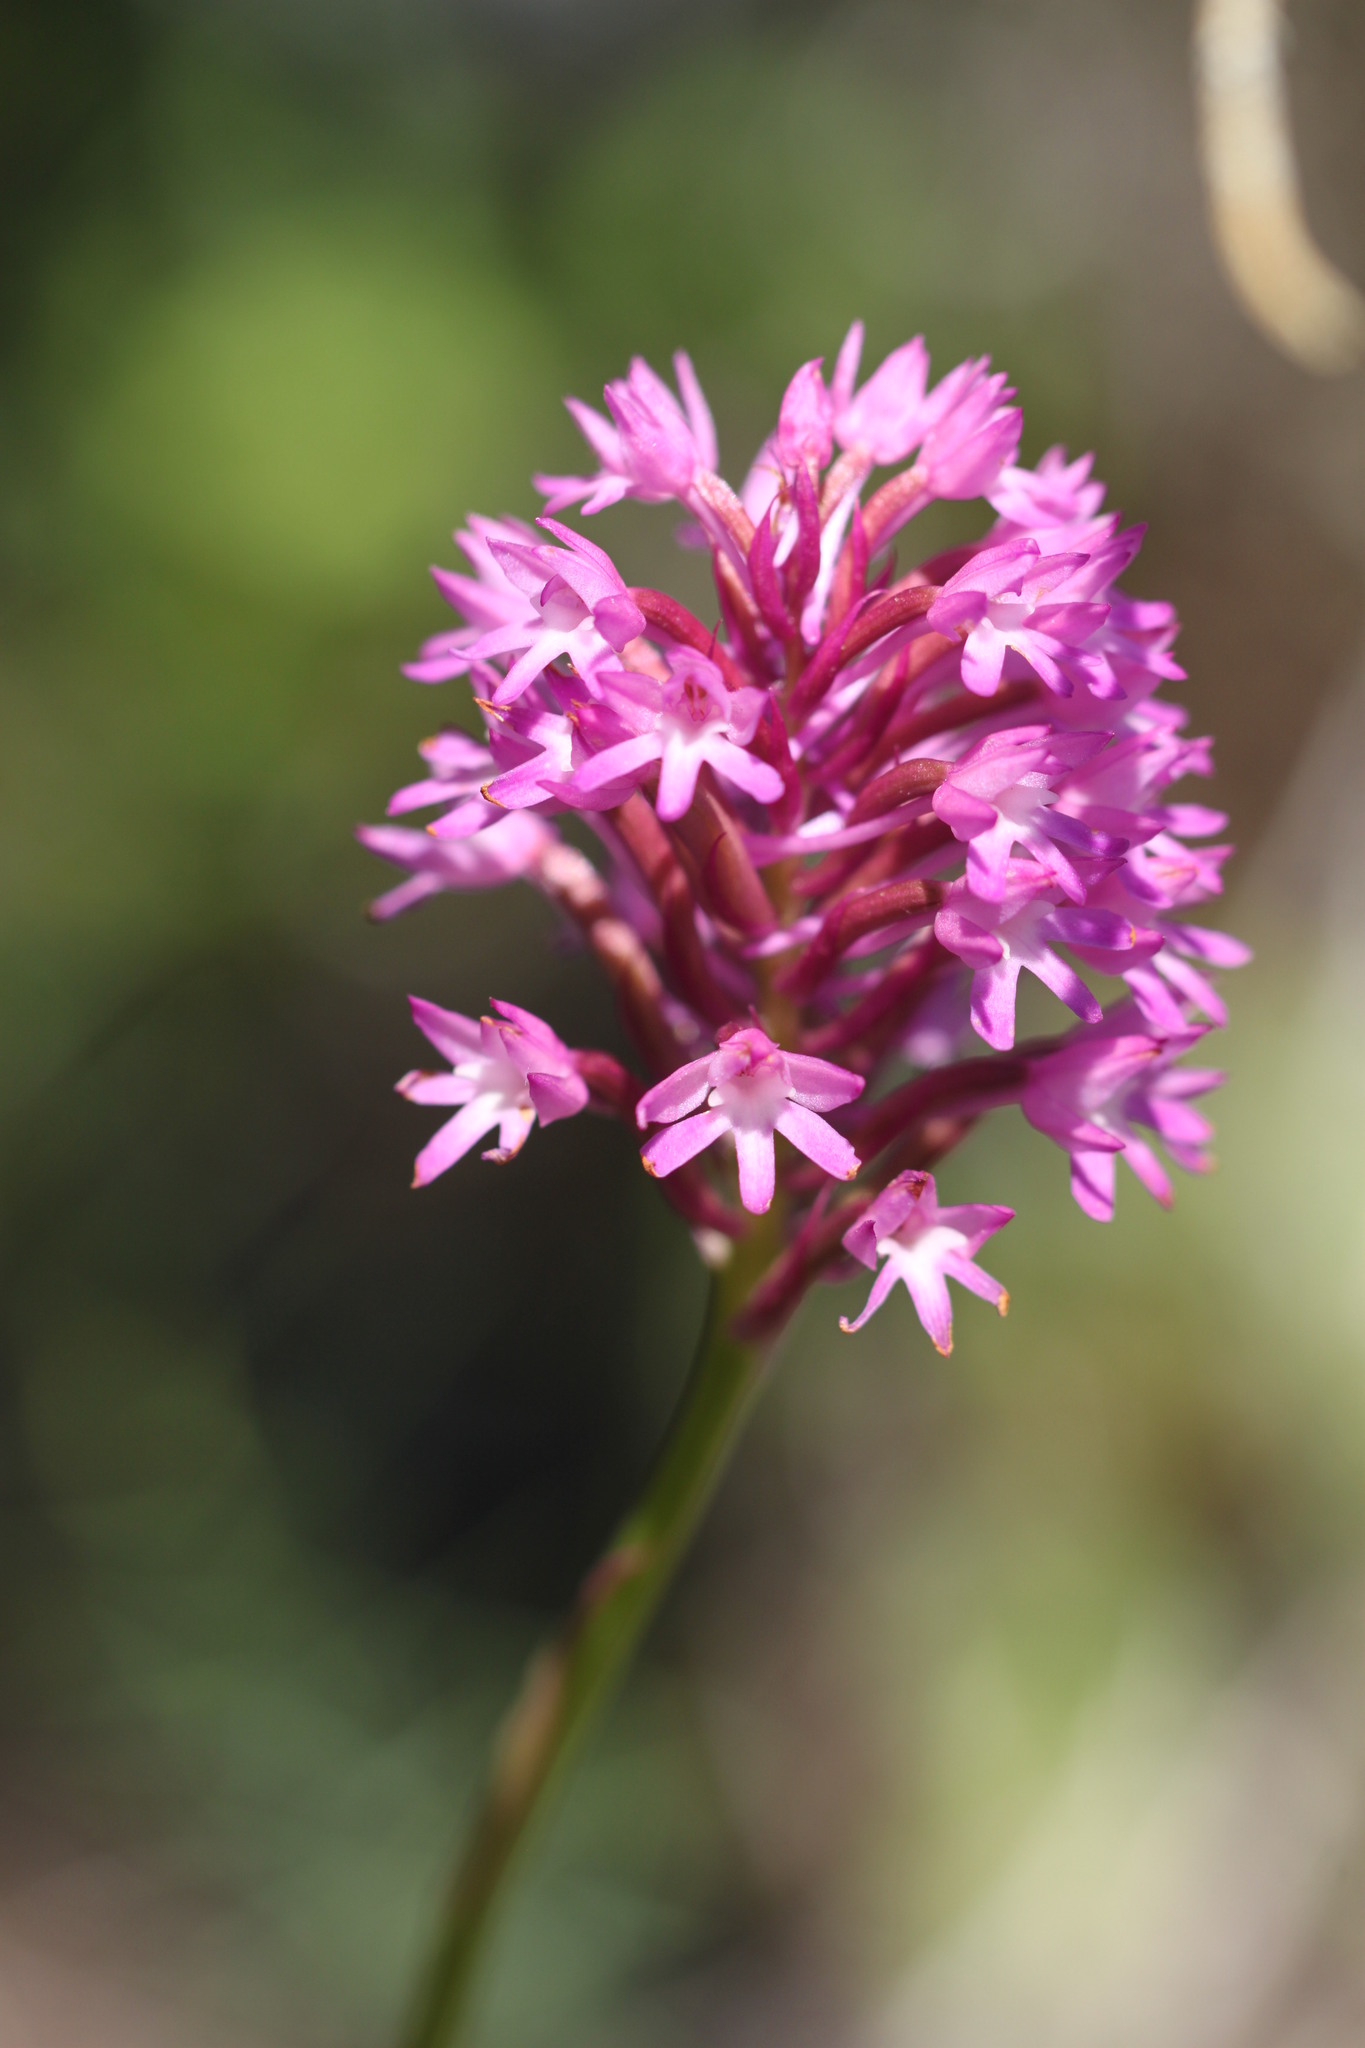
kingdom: Plantae
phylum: Tracheophyta
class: Liliopsida
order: Asparagales
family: Orchidaceae
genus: Anacamptis
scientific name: Anacamptis pyramidalis
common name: Pyramidal orchid
